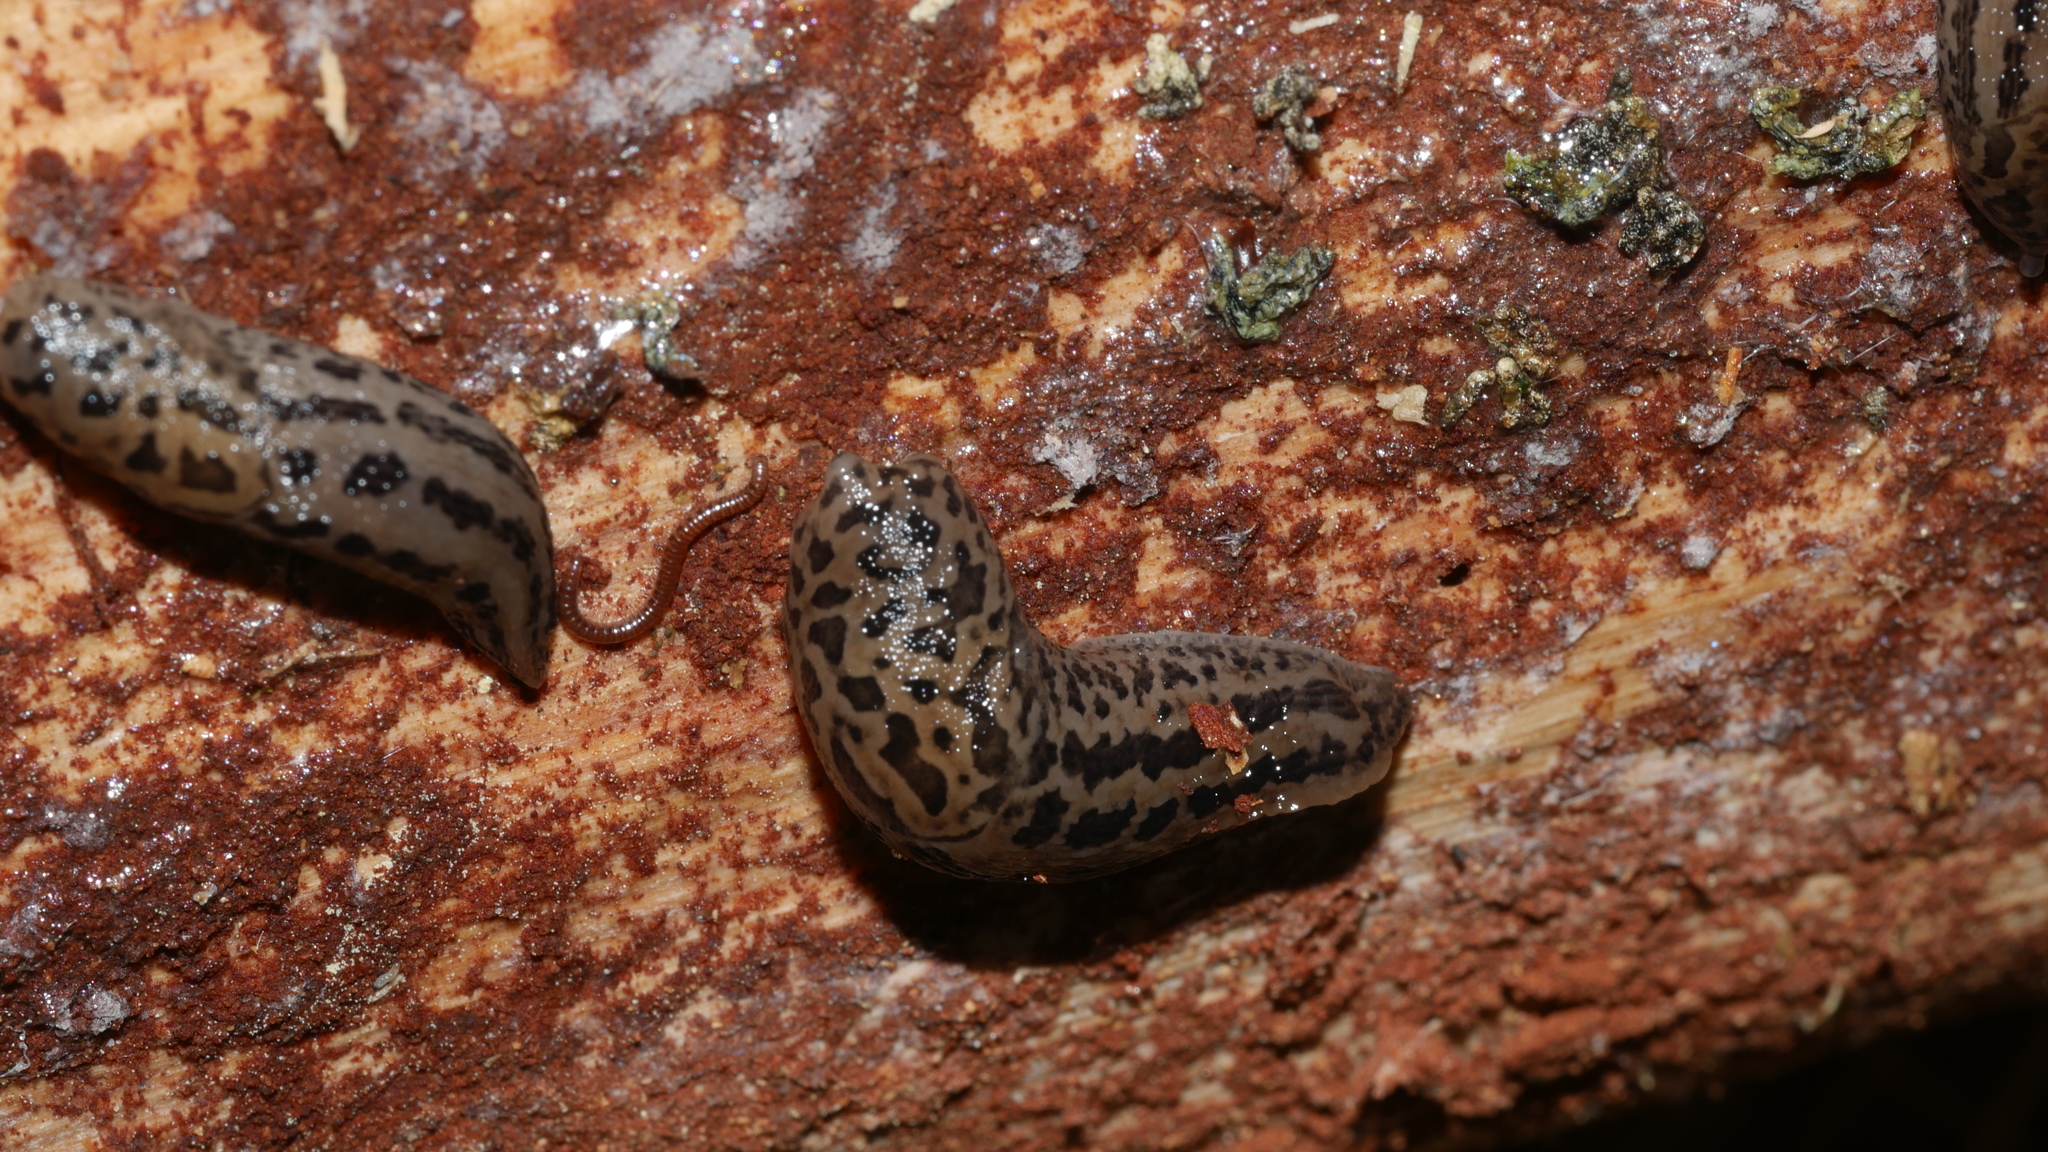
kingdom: Animalia
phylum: Mollusca
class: Gastropoda
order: Stylommatophora
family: Limacidae
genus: Limax
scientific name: Limax maximus
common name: Great grey slug
